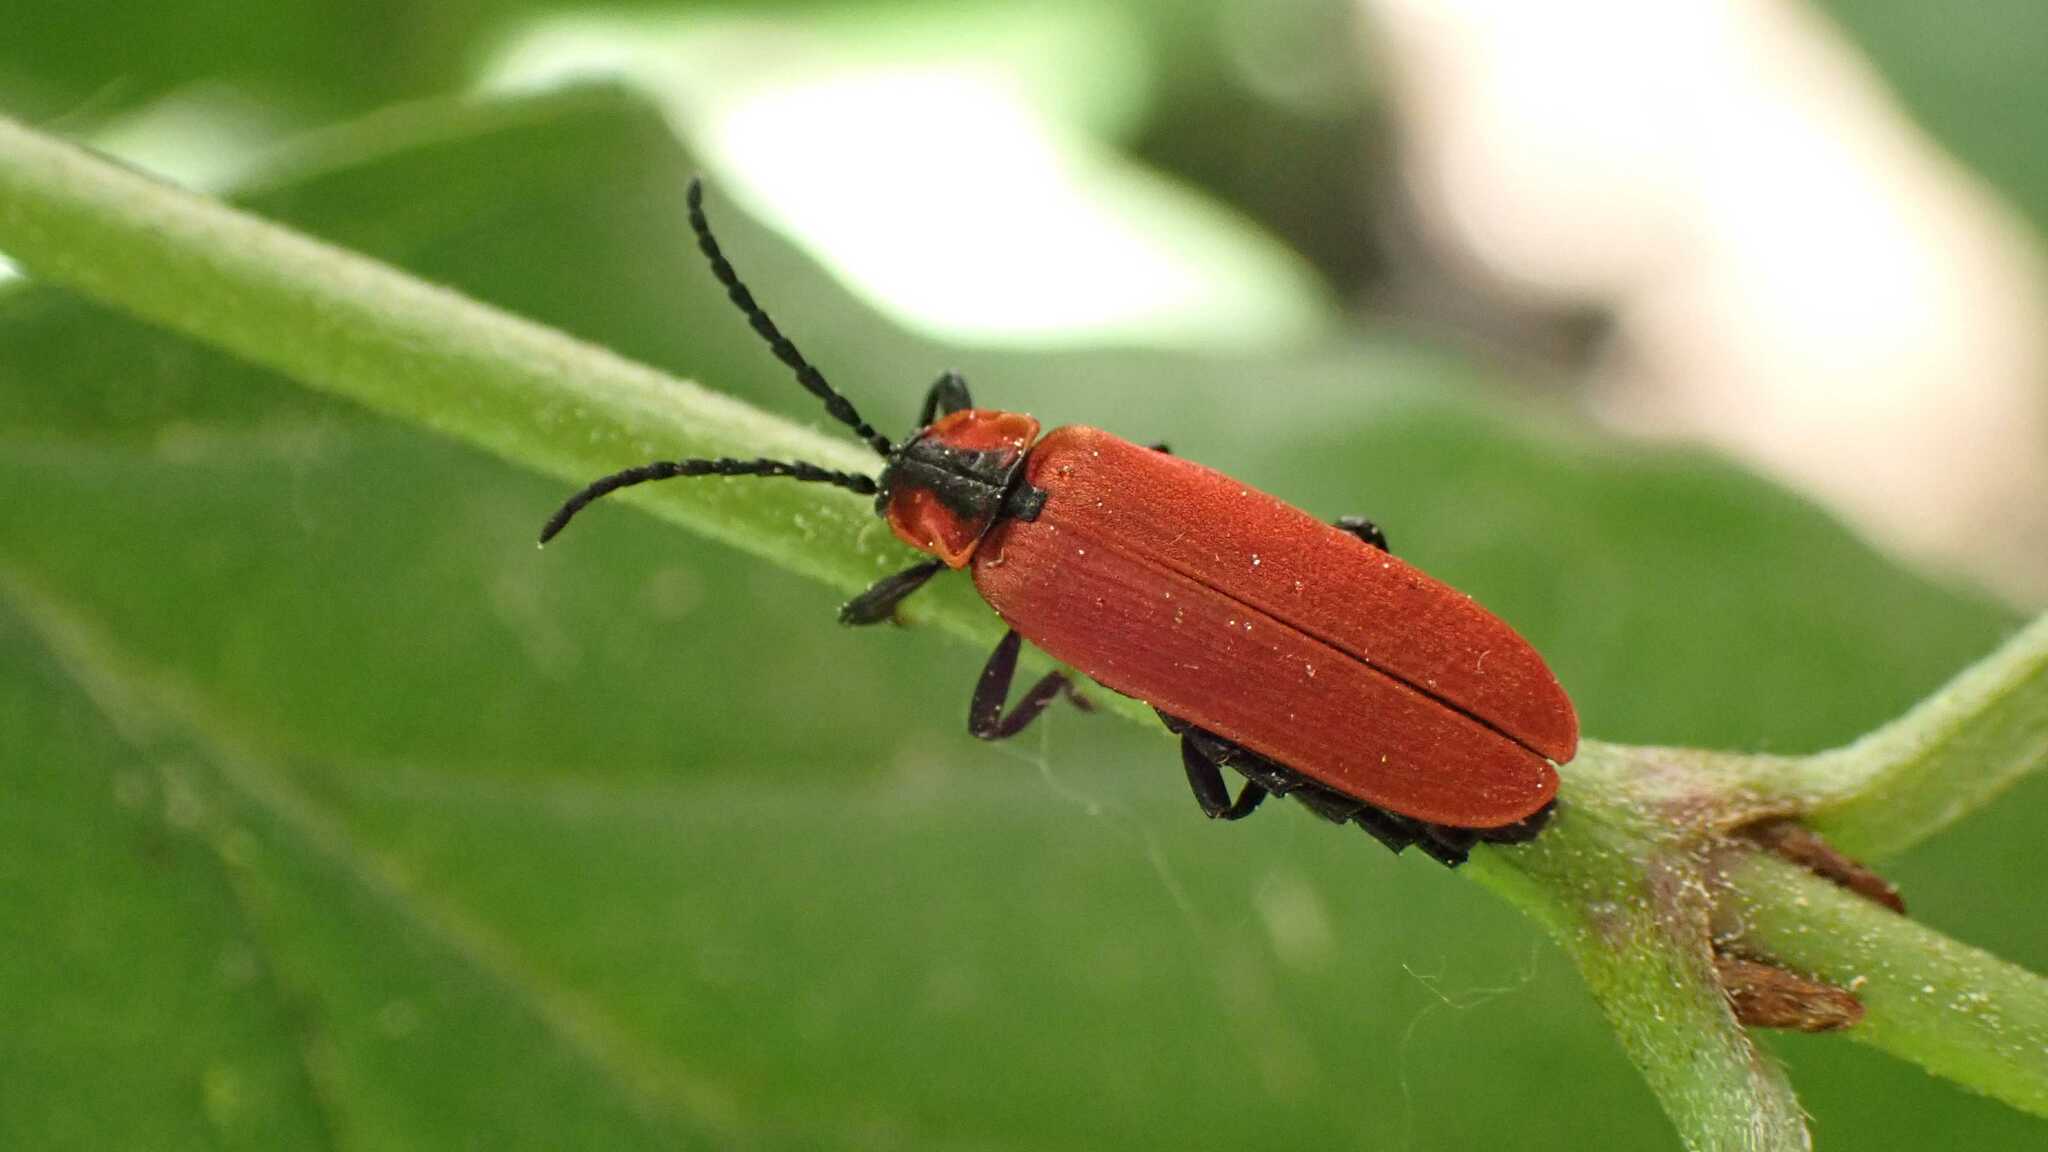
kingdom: Animalia
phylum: Arthropoda
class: Insecta
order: Coleoptera
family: Lycidae
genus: Lygistopterus
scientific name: Lygistopterus sanguineus
